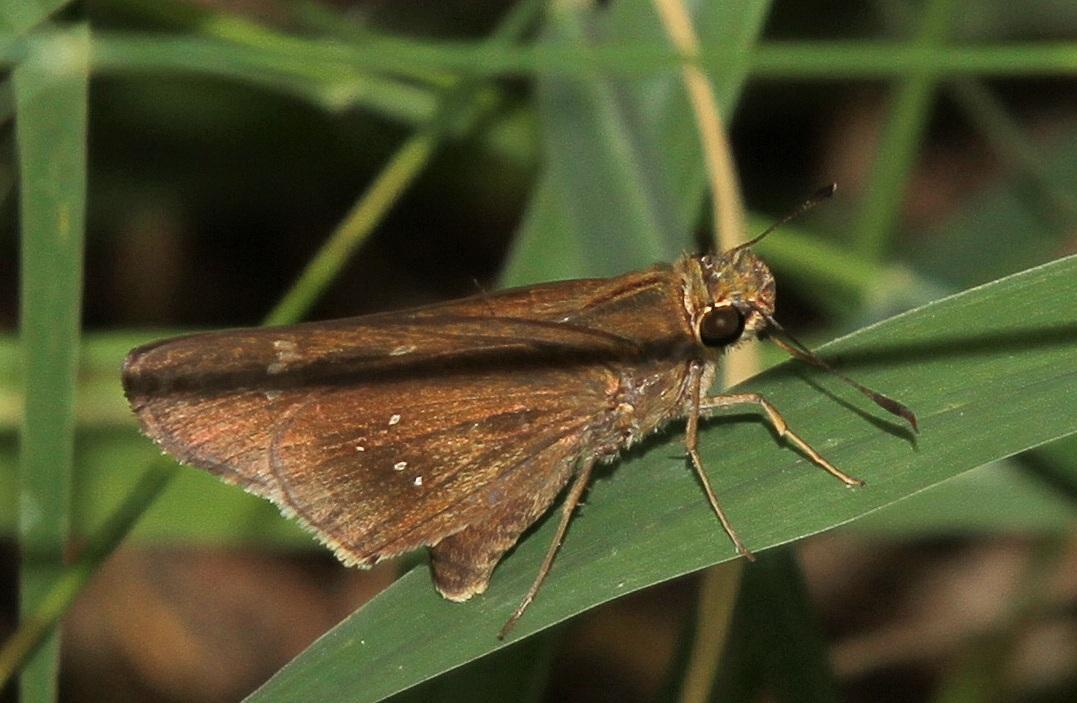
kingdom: Animalia
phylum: Arthropoda
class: Insecta
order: Lepidoptera
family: Hesperiidae
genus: Baoris
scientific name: Baoris fatuellus
